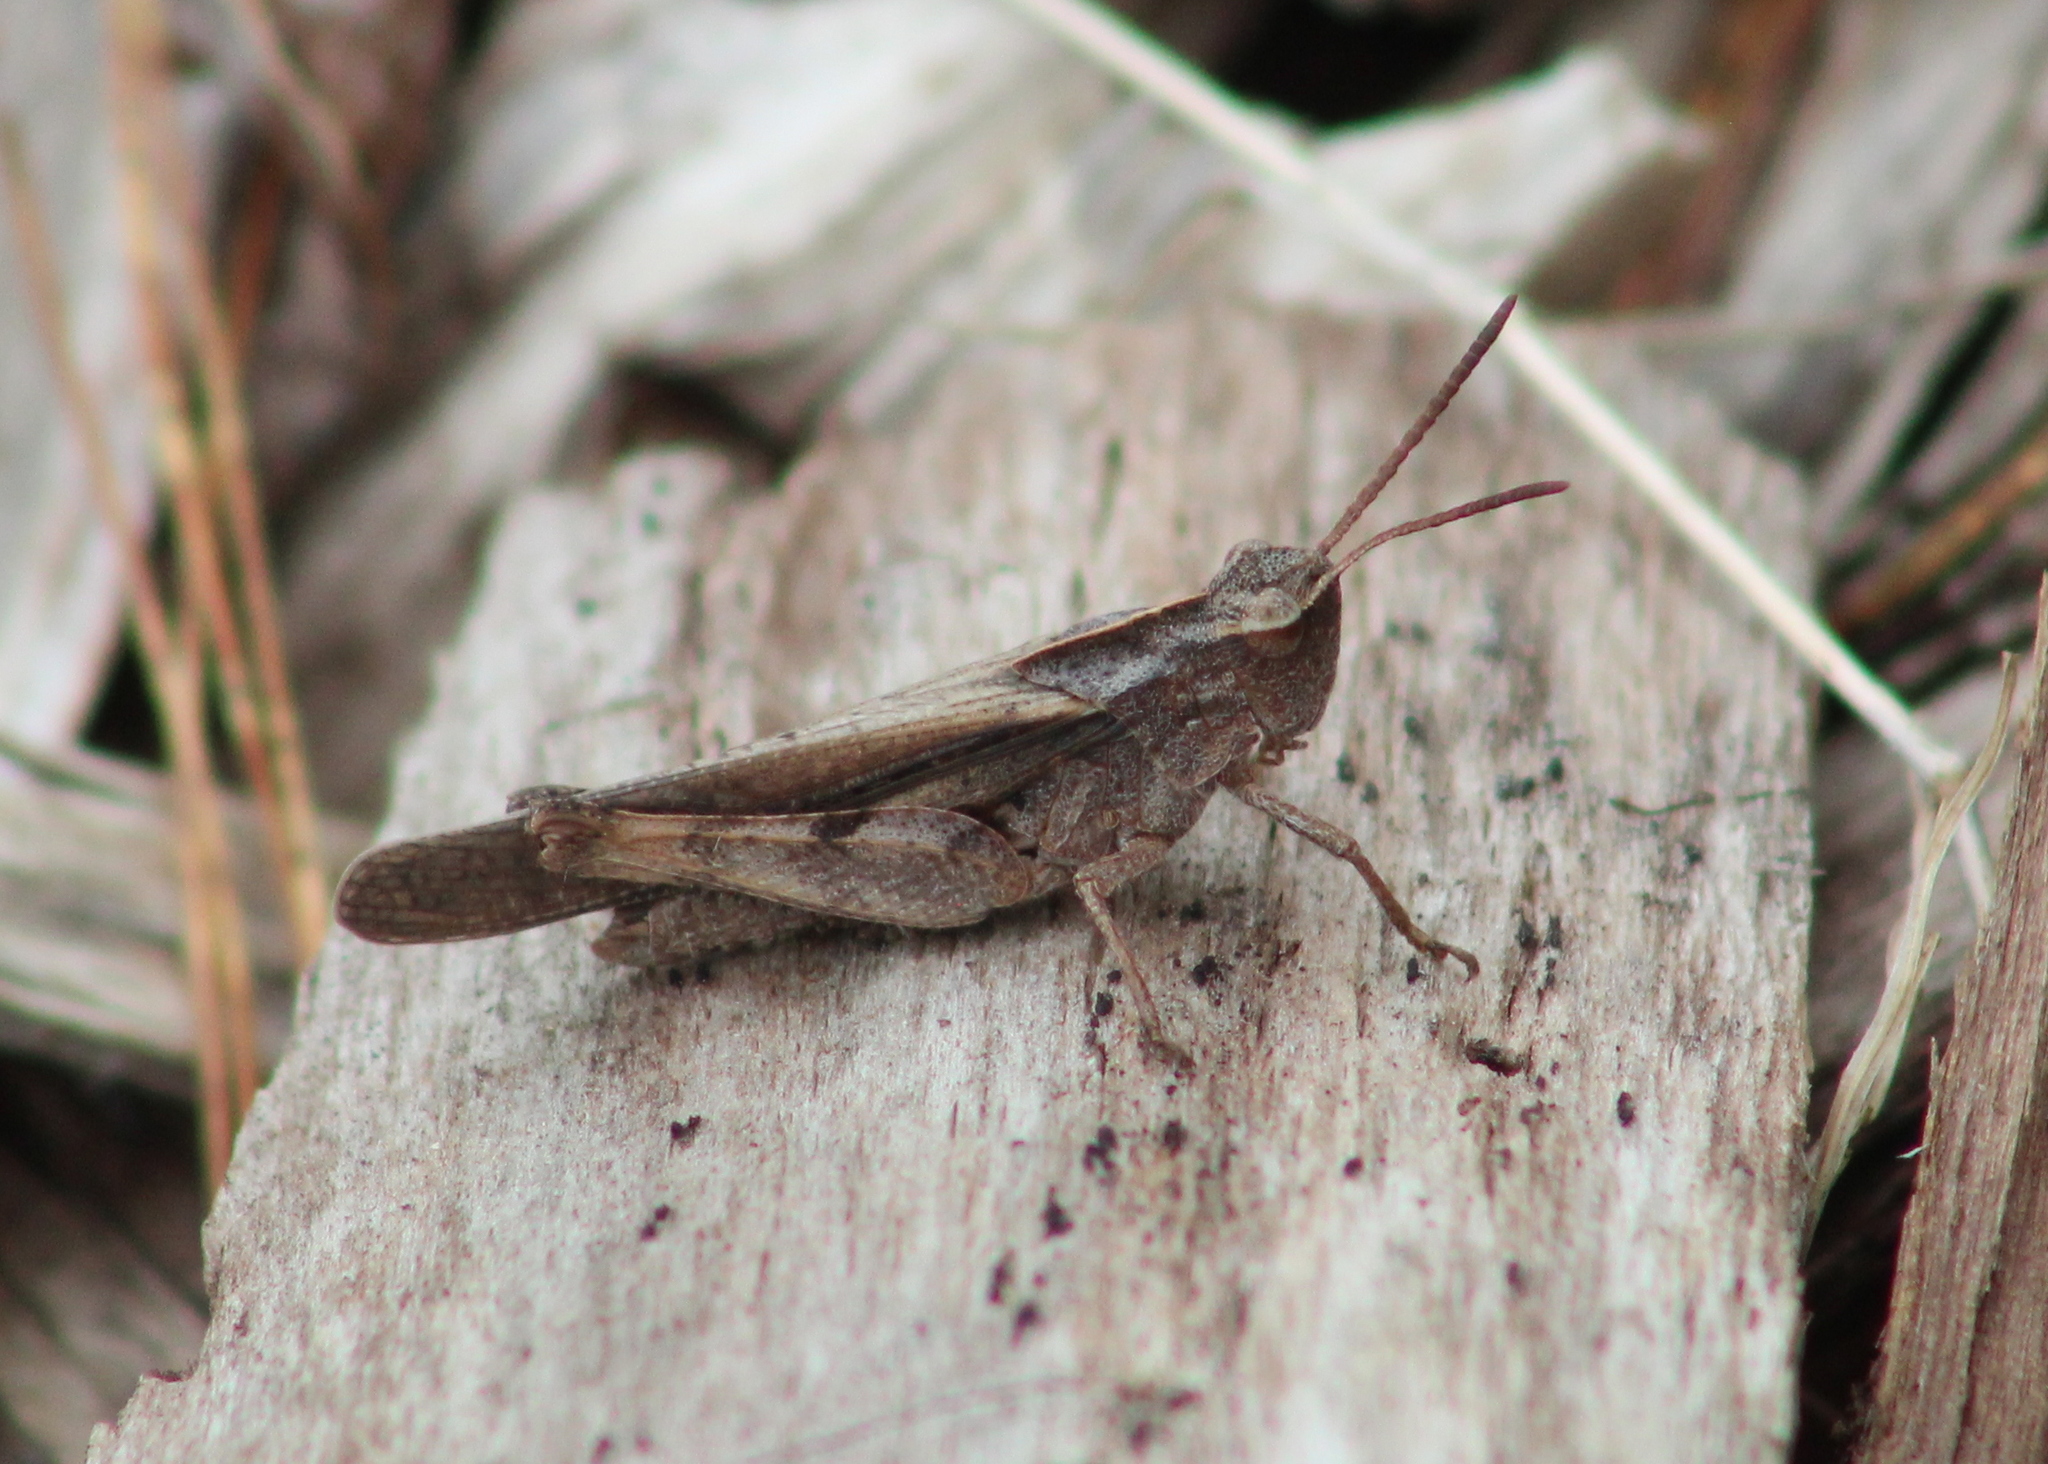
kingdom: Animalia
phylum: Arthropoda
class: Insecta
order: Orthoptera
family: Acrididae
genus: Chortophaga
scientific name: Chortophaga viridifasciata
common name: Green-striped grasshopper
